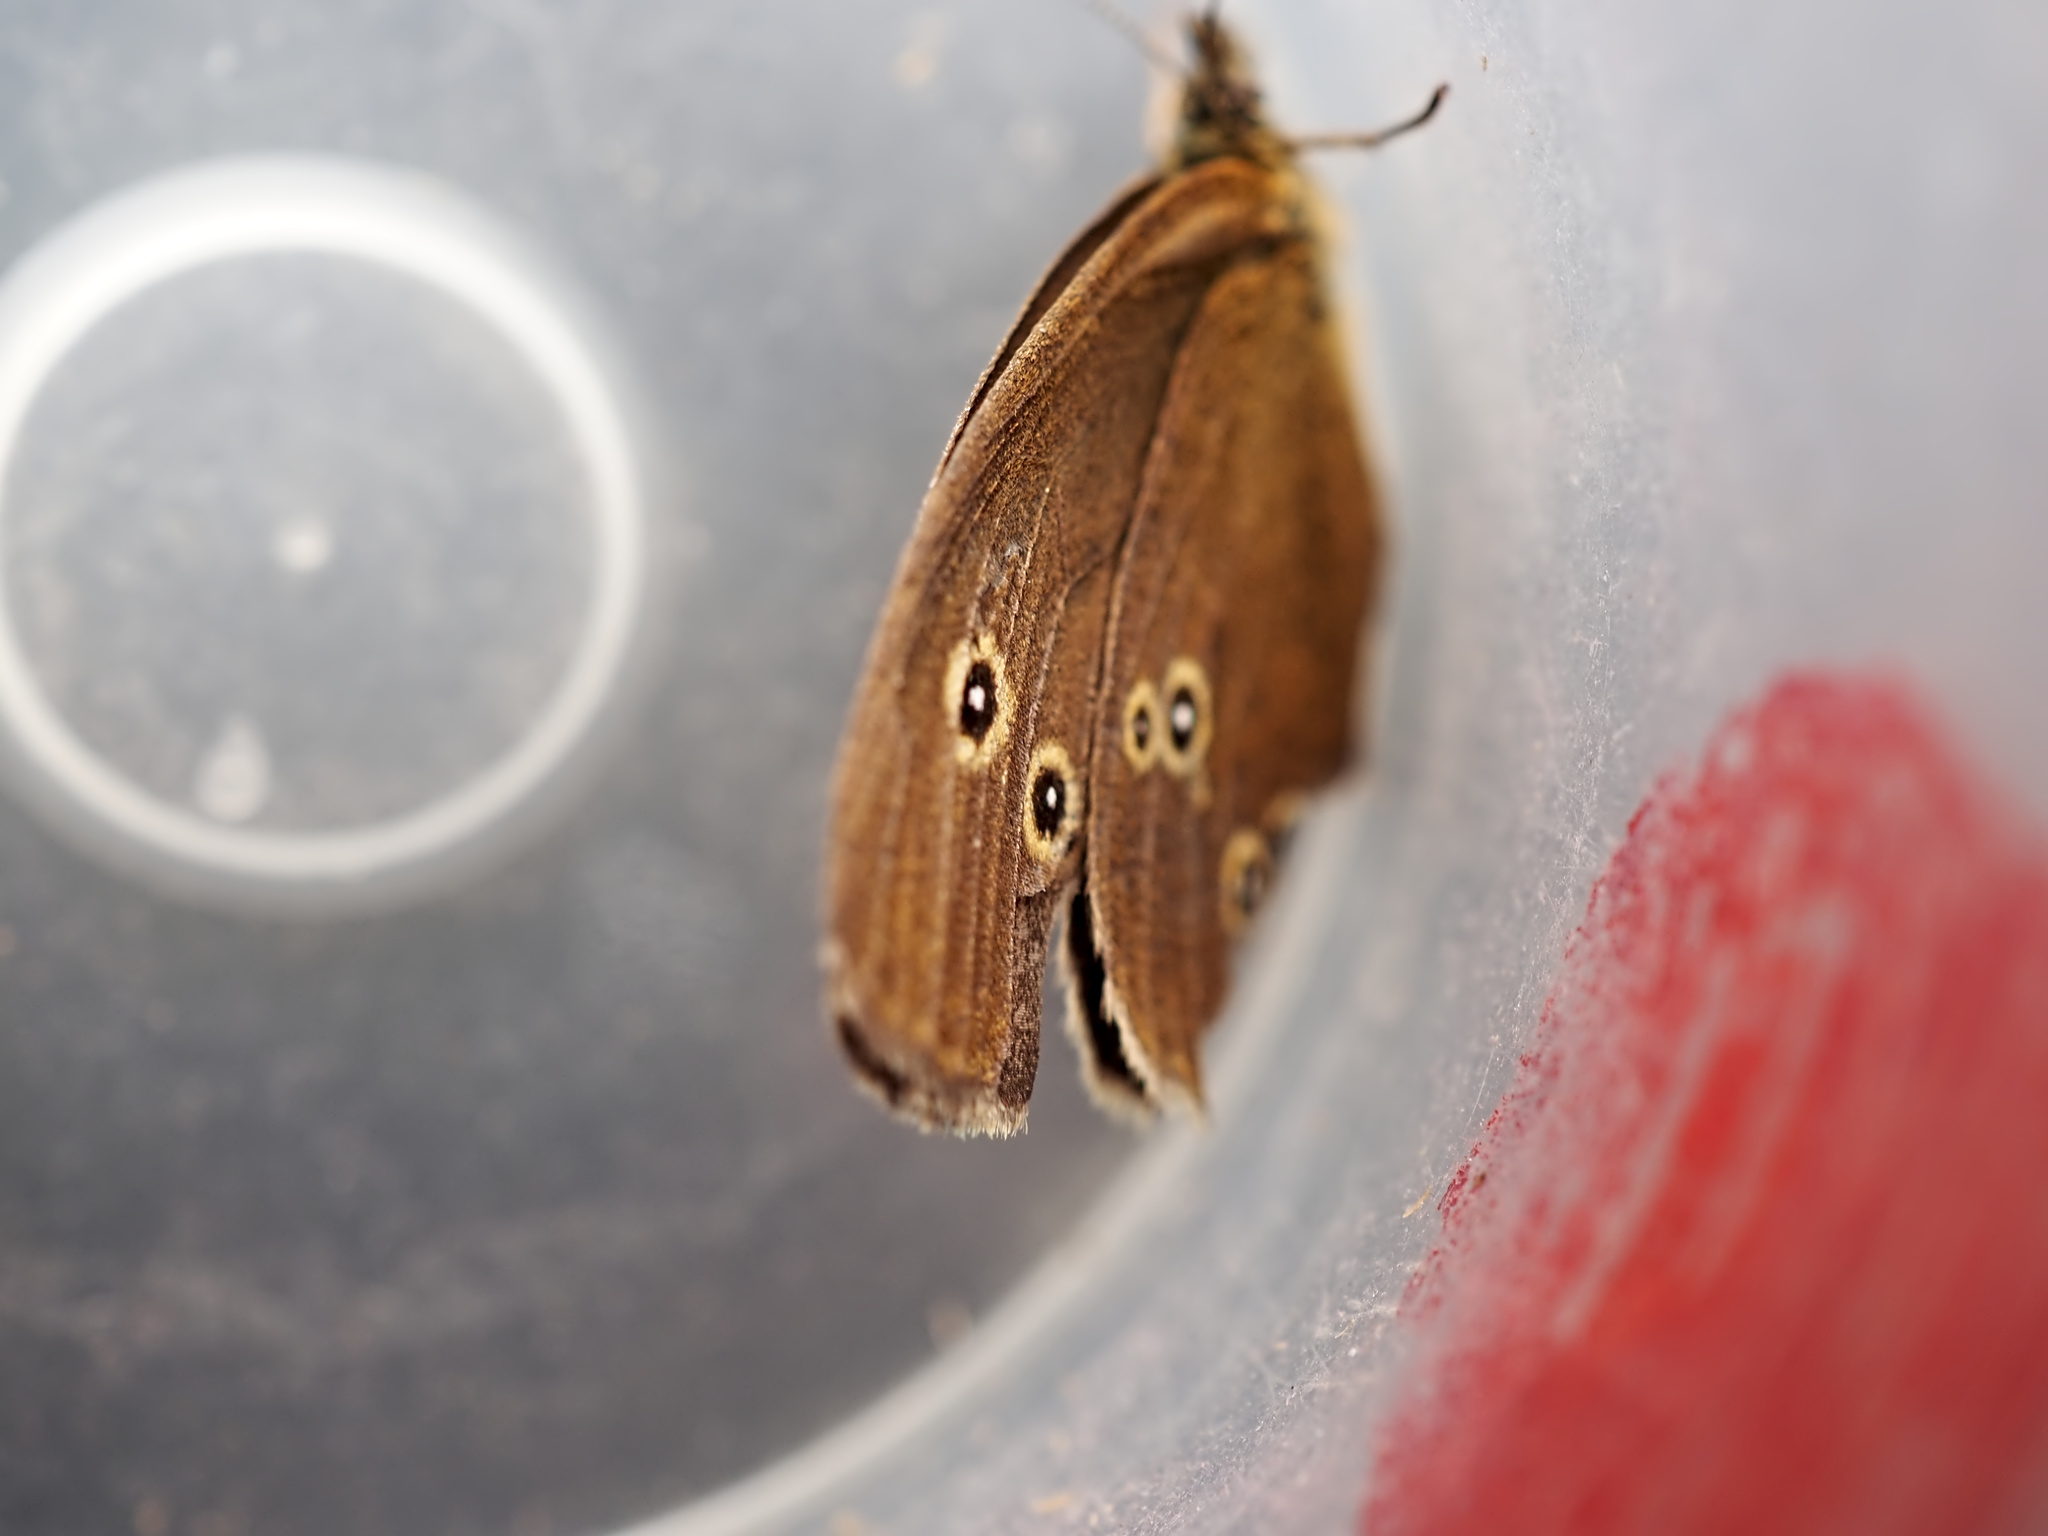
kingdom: Animalia
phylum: Arthropoda
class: Insecta
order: Lepidoptera
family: Nymphalidae
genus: Aphantopus
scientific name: Aphantopus hyperantus
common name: Ringlet
